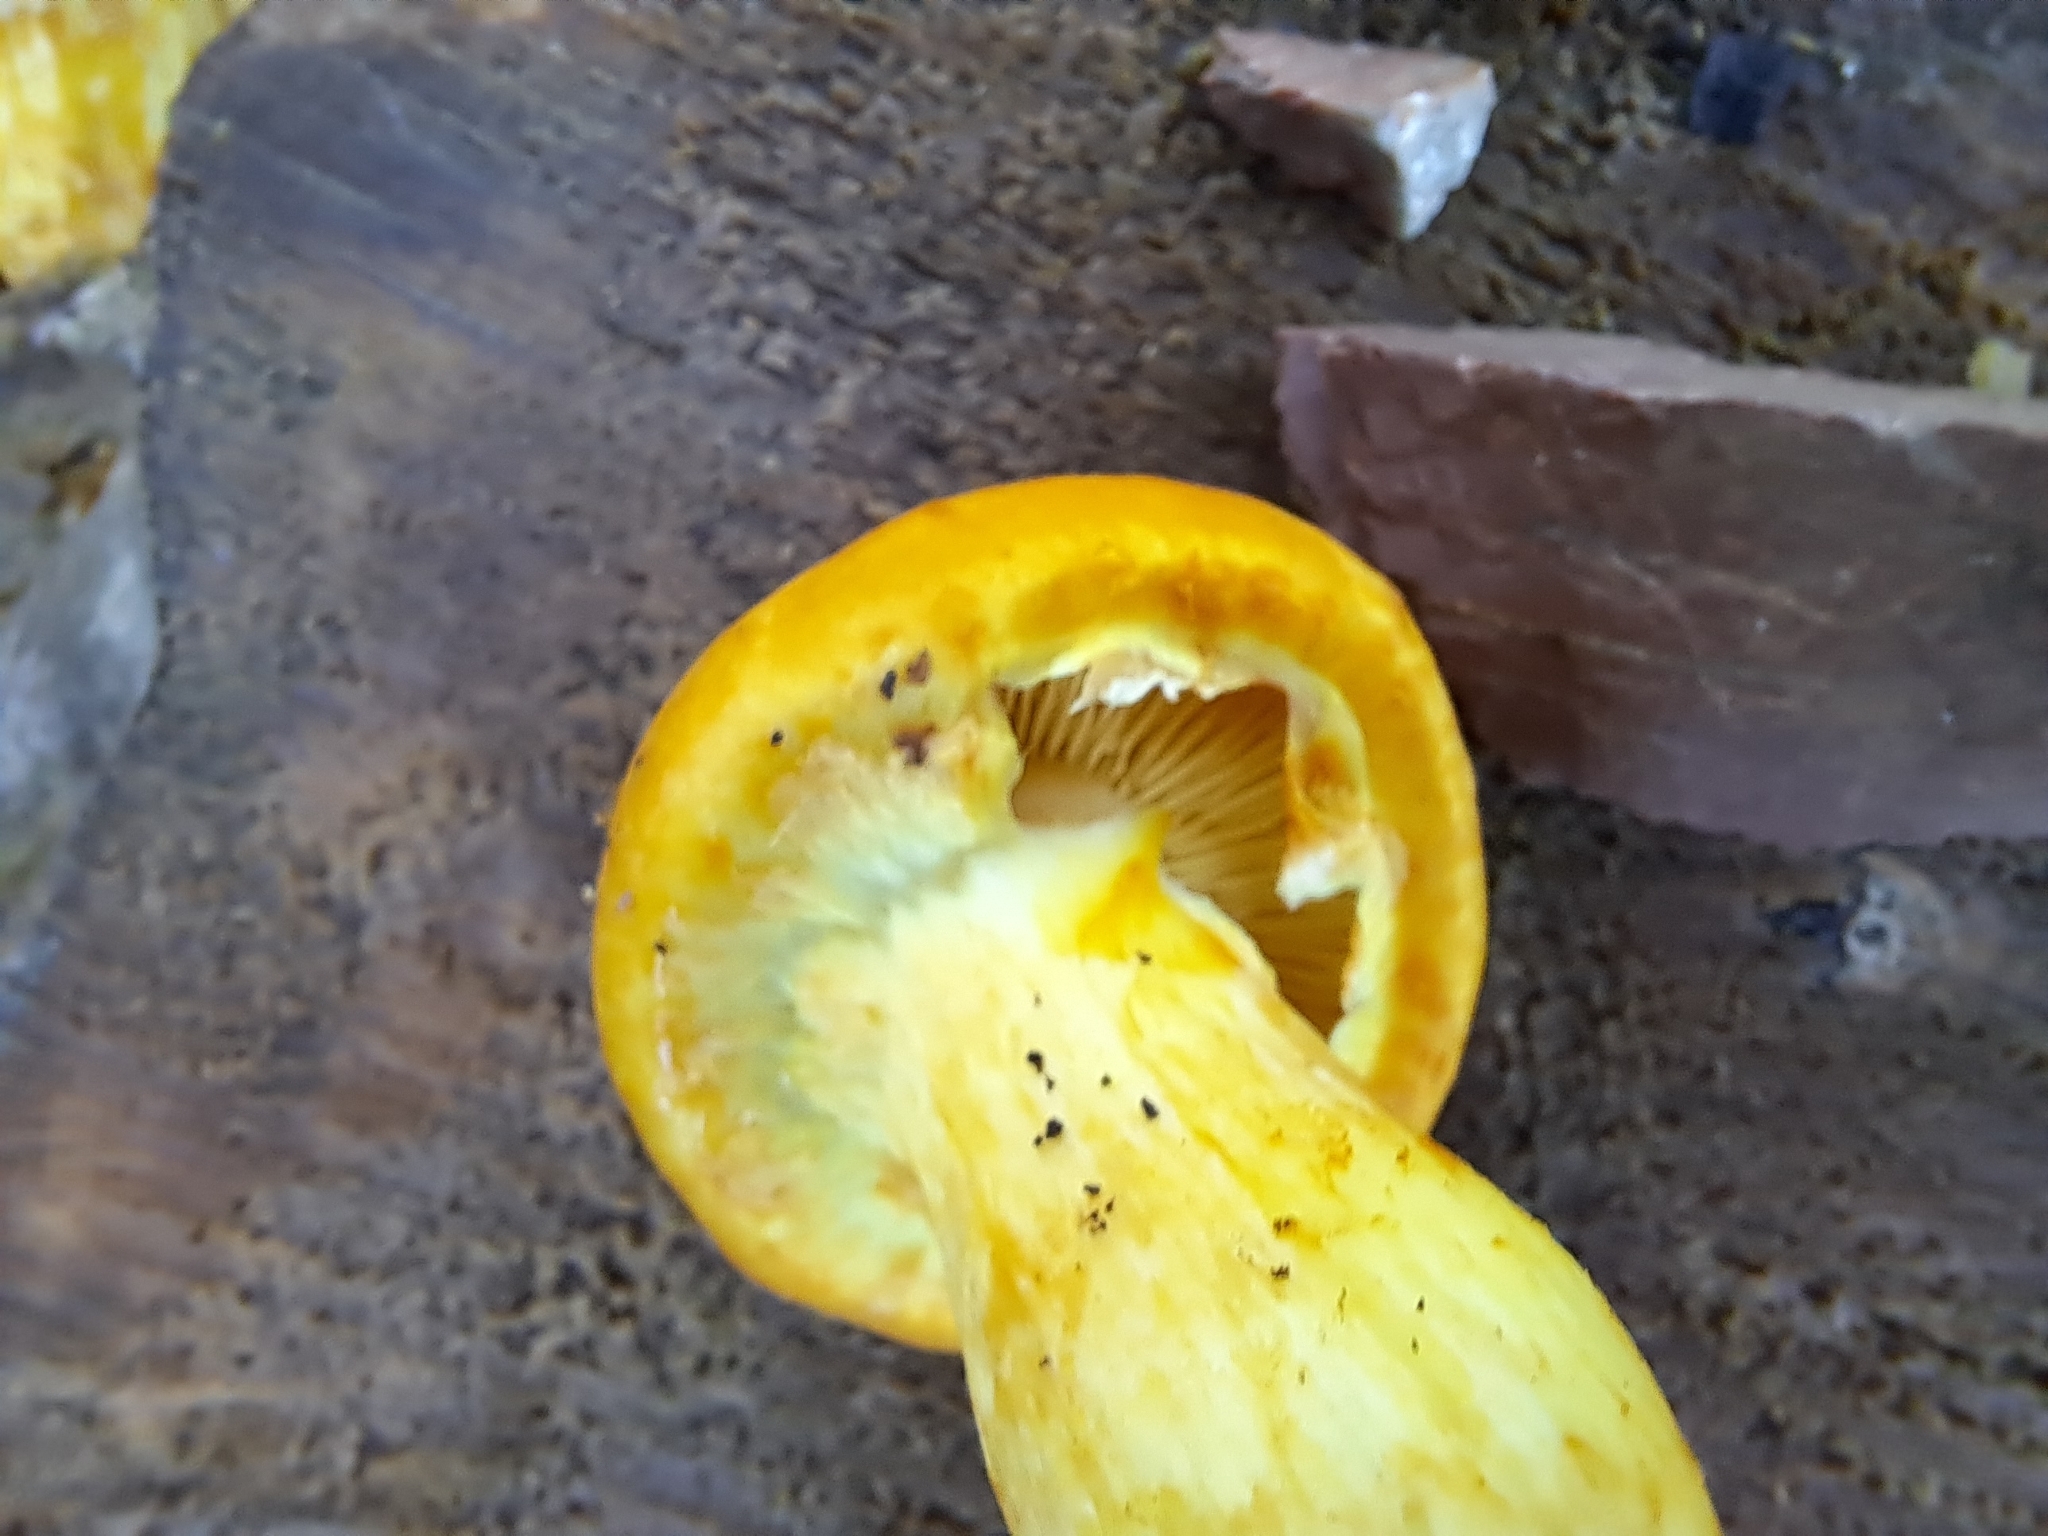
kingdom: Fungi
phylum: Basidiomycota
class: Agaricomycetes
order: Agaricales
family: Hymenogastraceae
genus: Gymnopilus
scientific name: Gymnopilus junonius
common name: Spectacular rustgill
